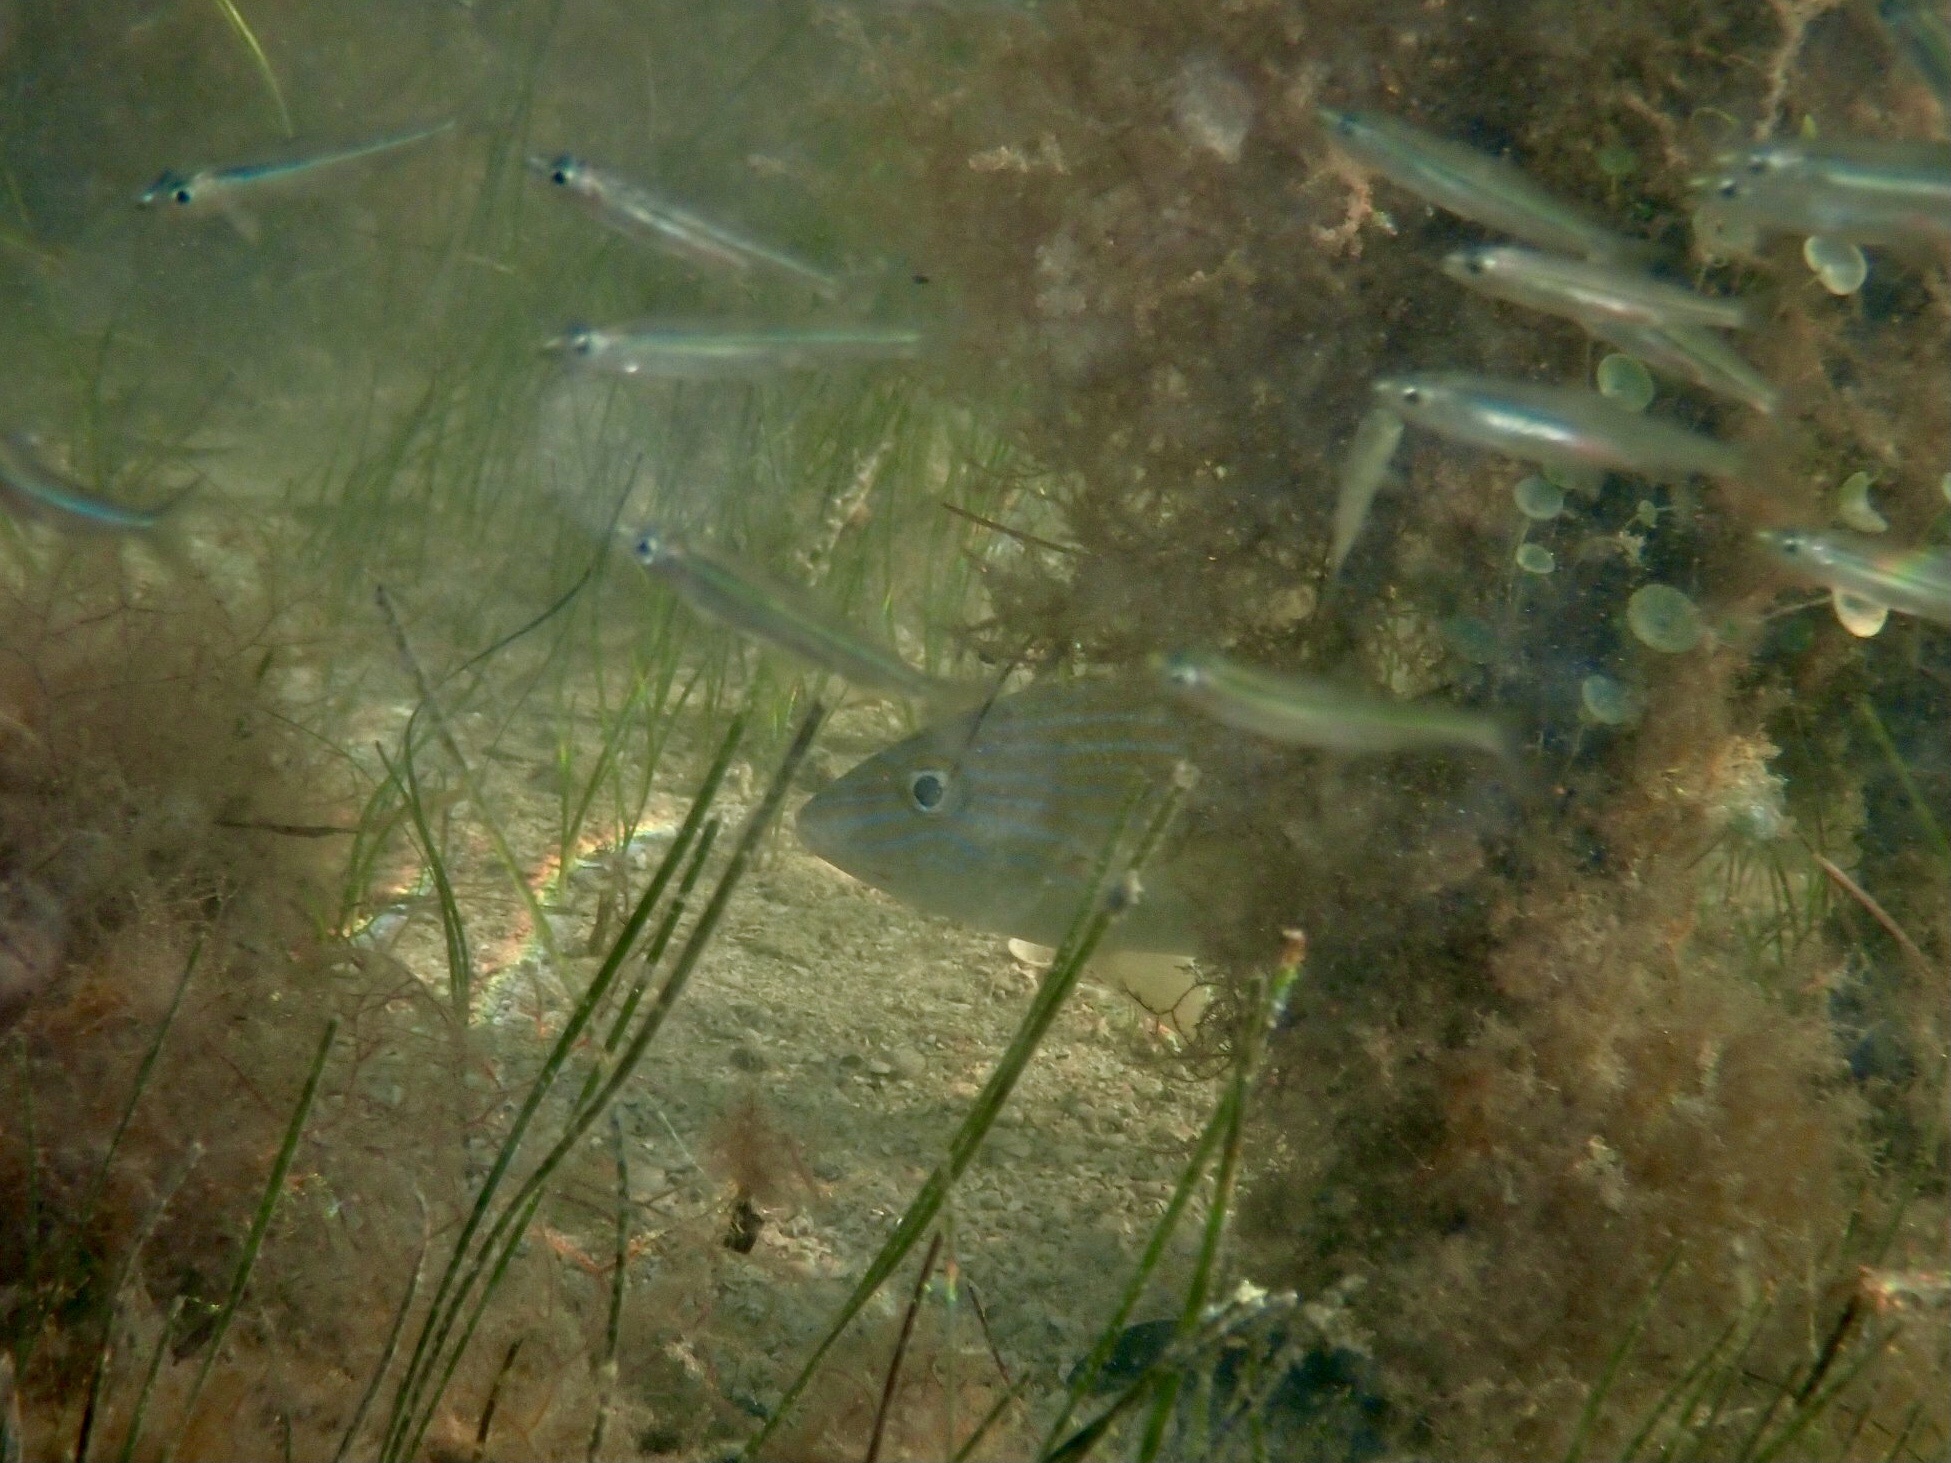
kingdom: Animalia
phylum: Chordata
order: Atheriniformes
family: Atherinidae
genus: Atherinomorus
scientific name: Atherinomorus stipes
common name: Hardhead silverside
